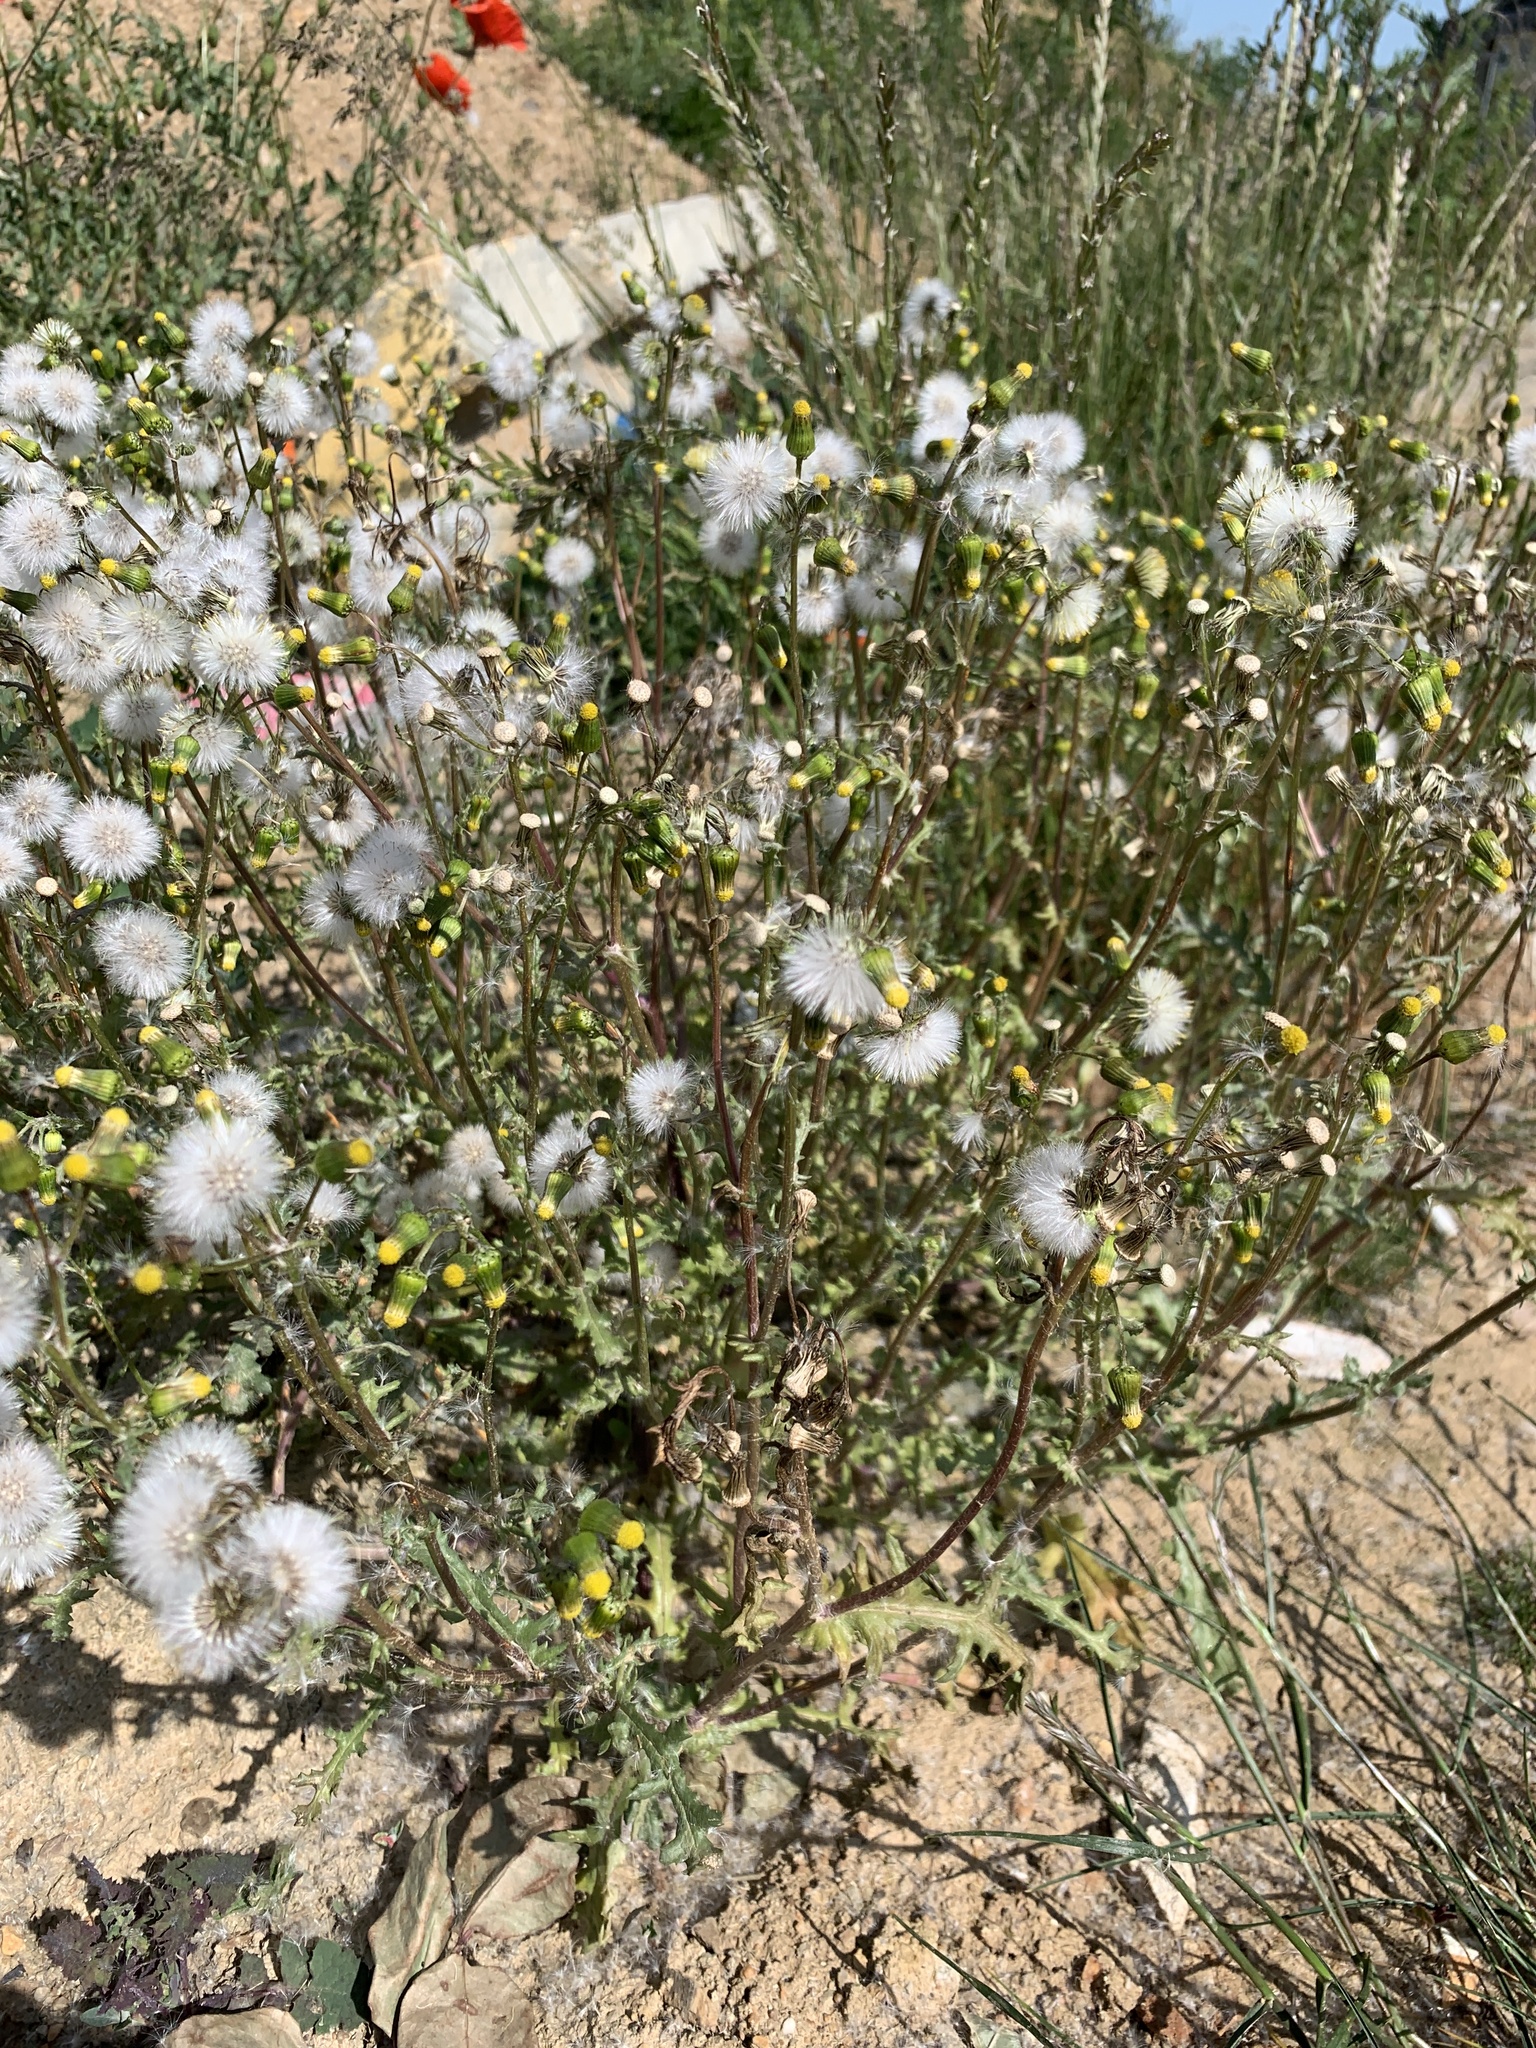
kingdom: Plantae
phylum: Tracheophyta
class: Magnoliopsida
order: Asterales
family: Asteraceae
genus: Senecio
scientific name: Senecio vulgaris
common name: Old-man-in-the-spring
